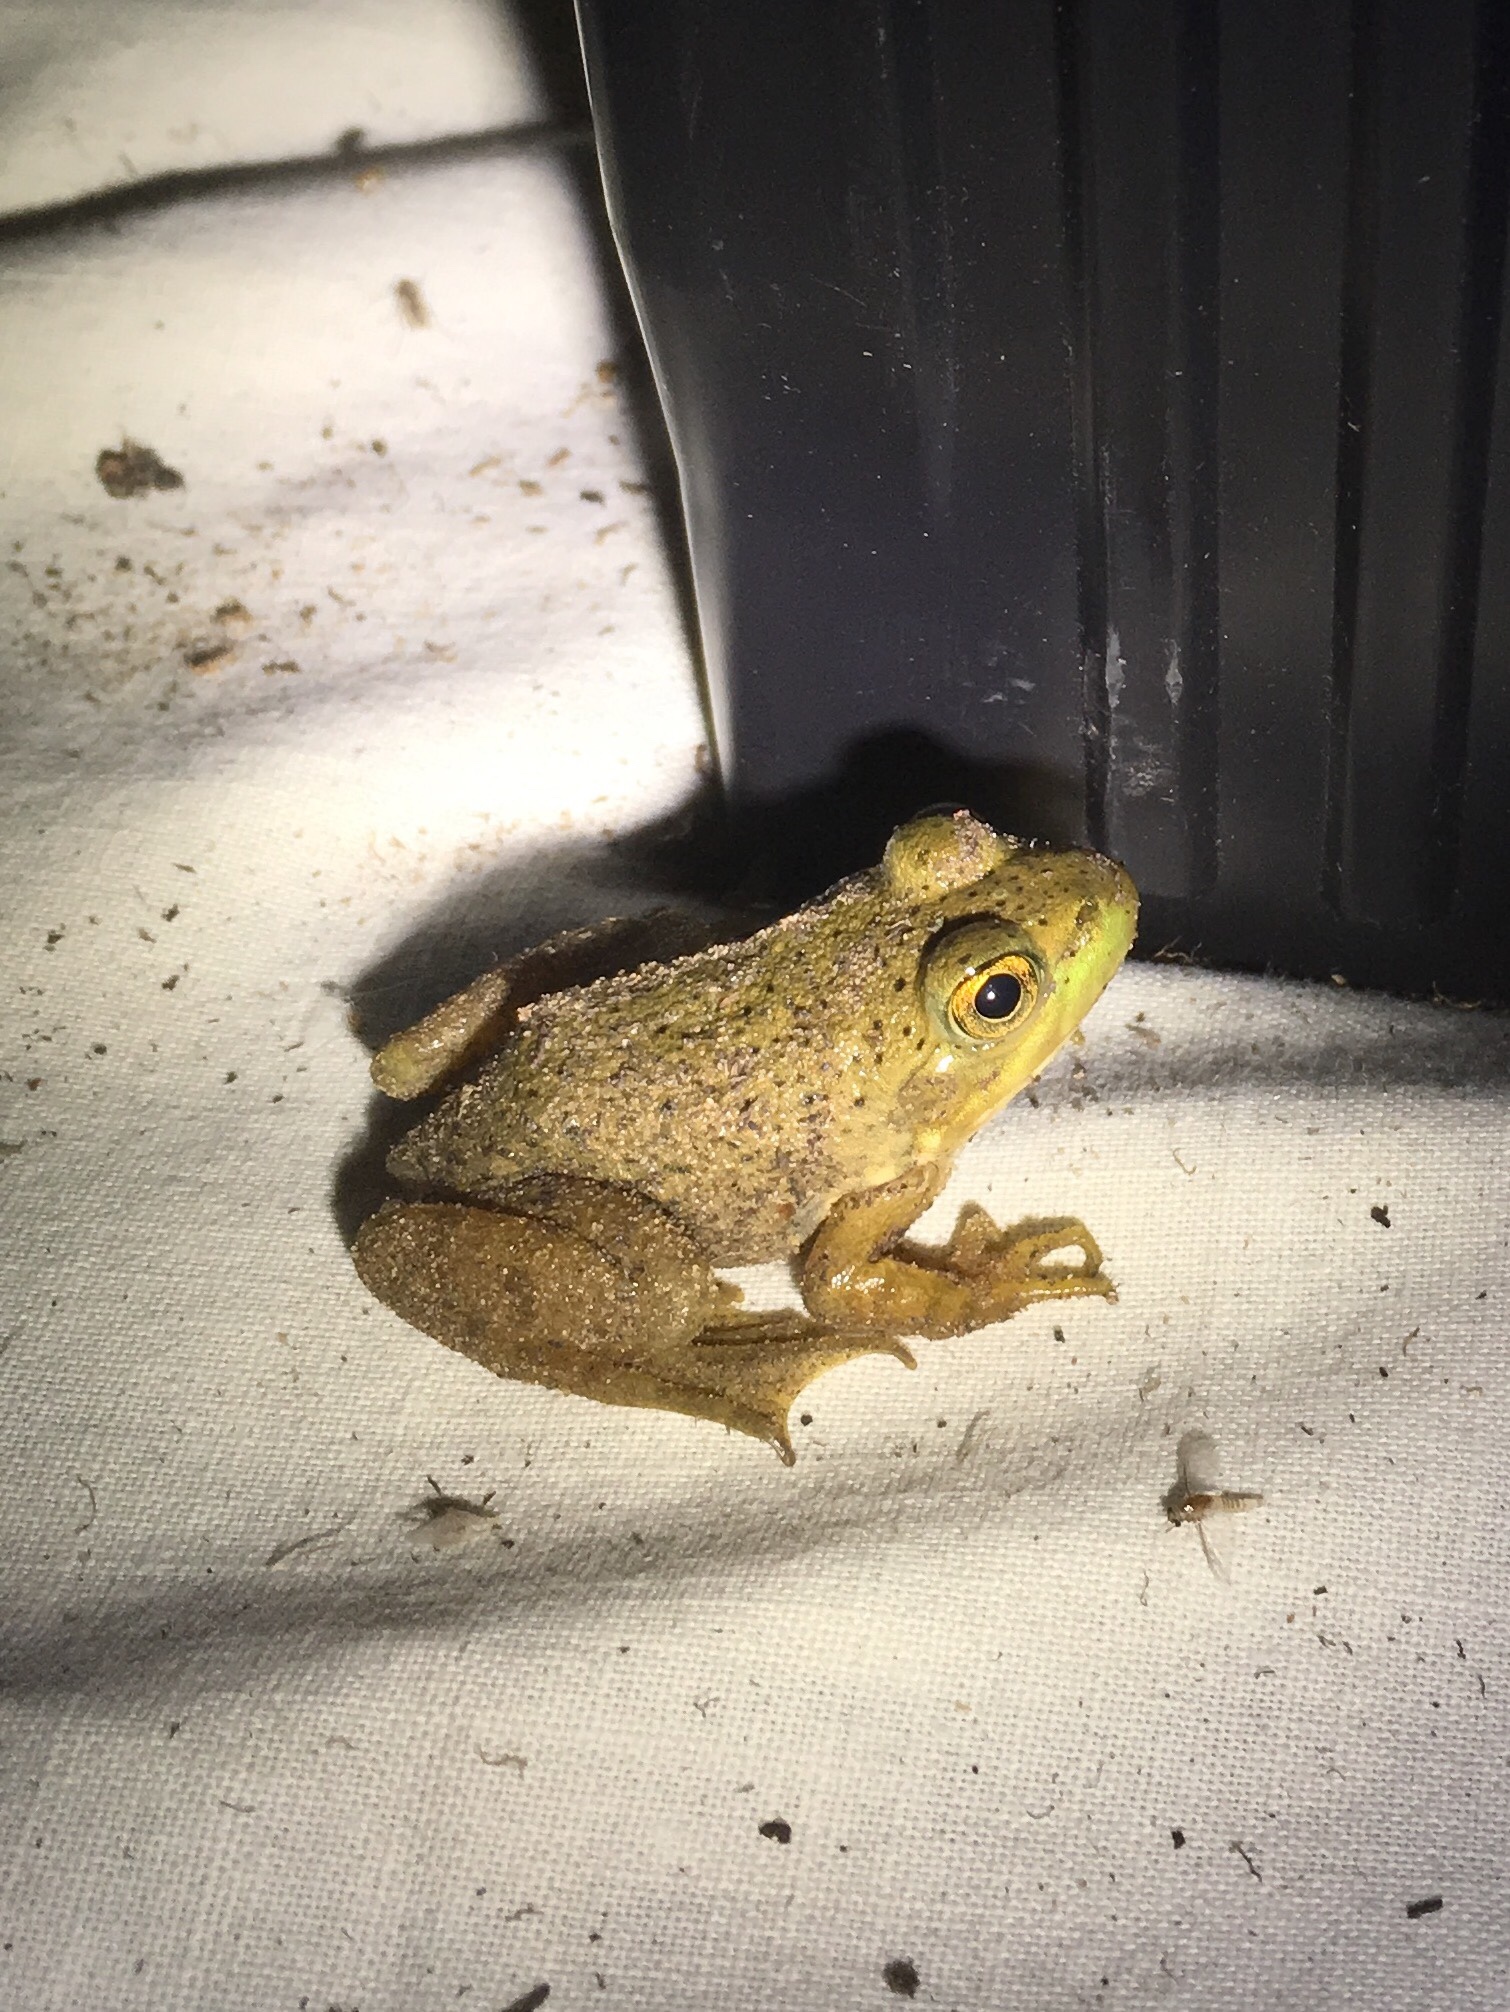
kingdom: Animalia
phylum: Chordata
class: Amphibia
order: Anura
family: Ranidae
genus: Lithobates
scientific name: Lithobates catesbeianus
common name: American bullfrog
